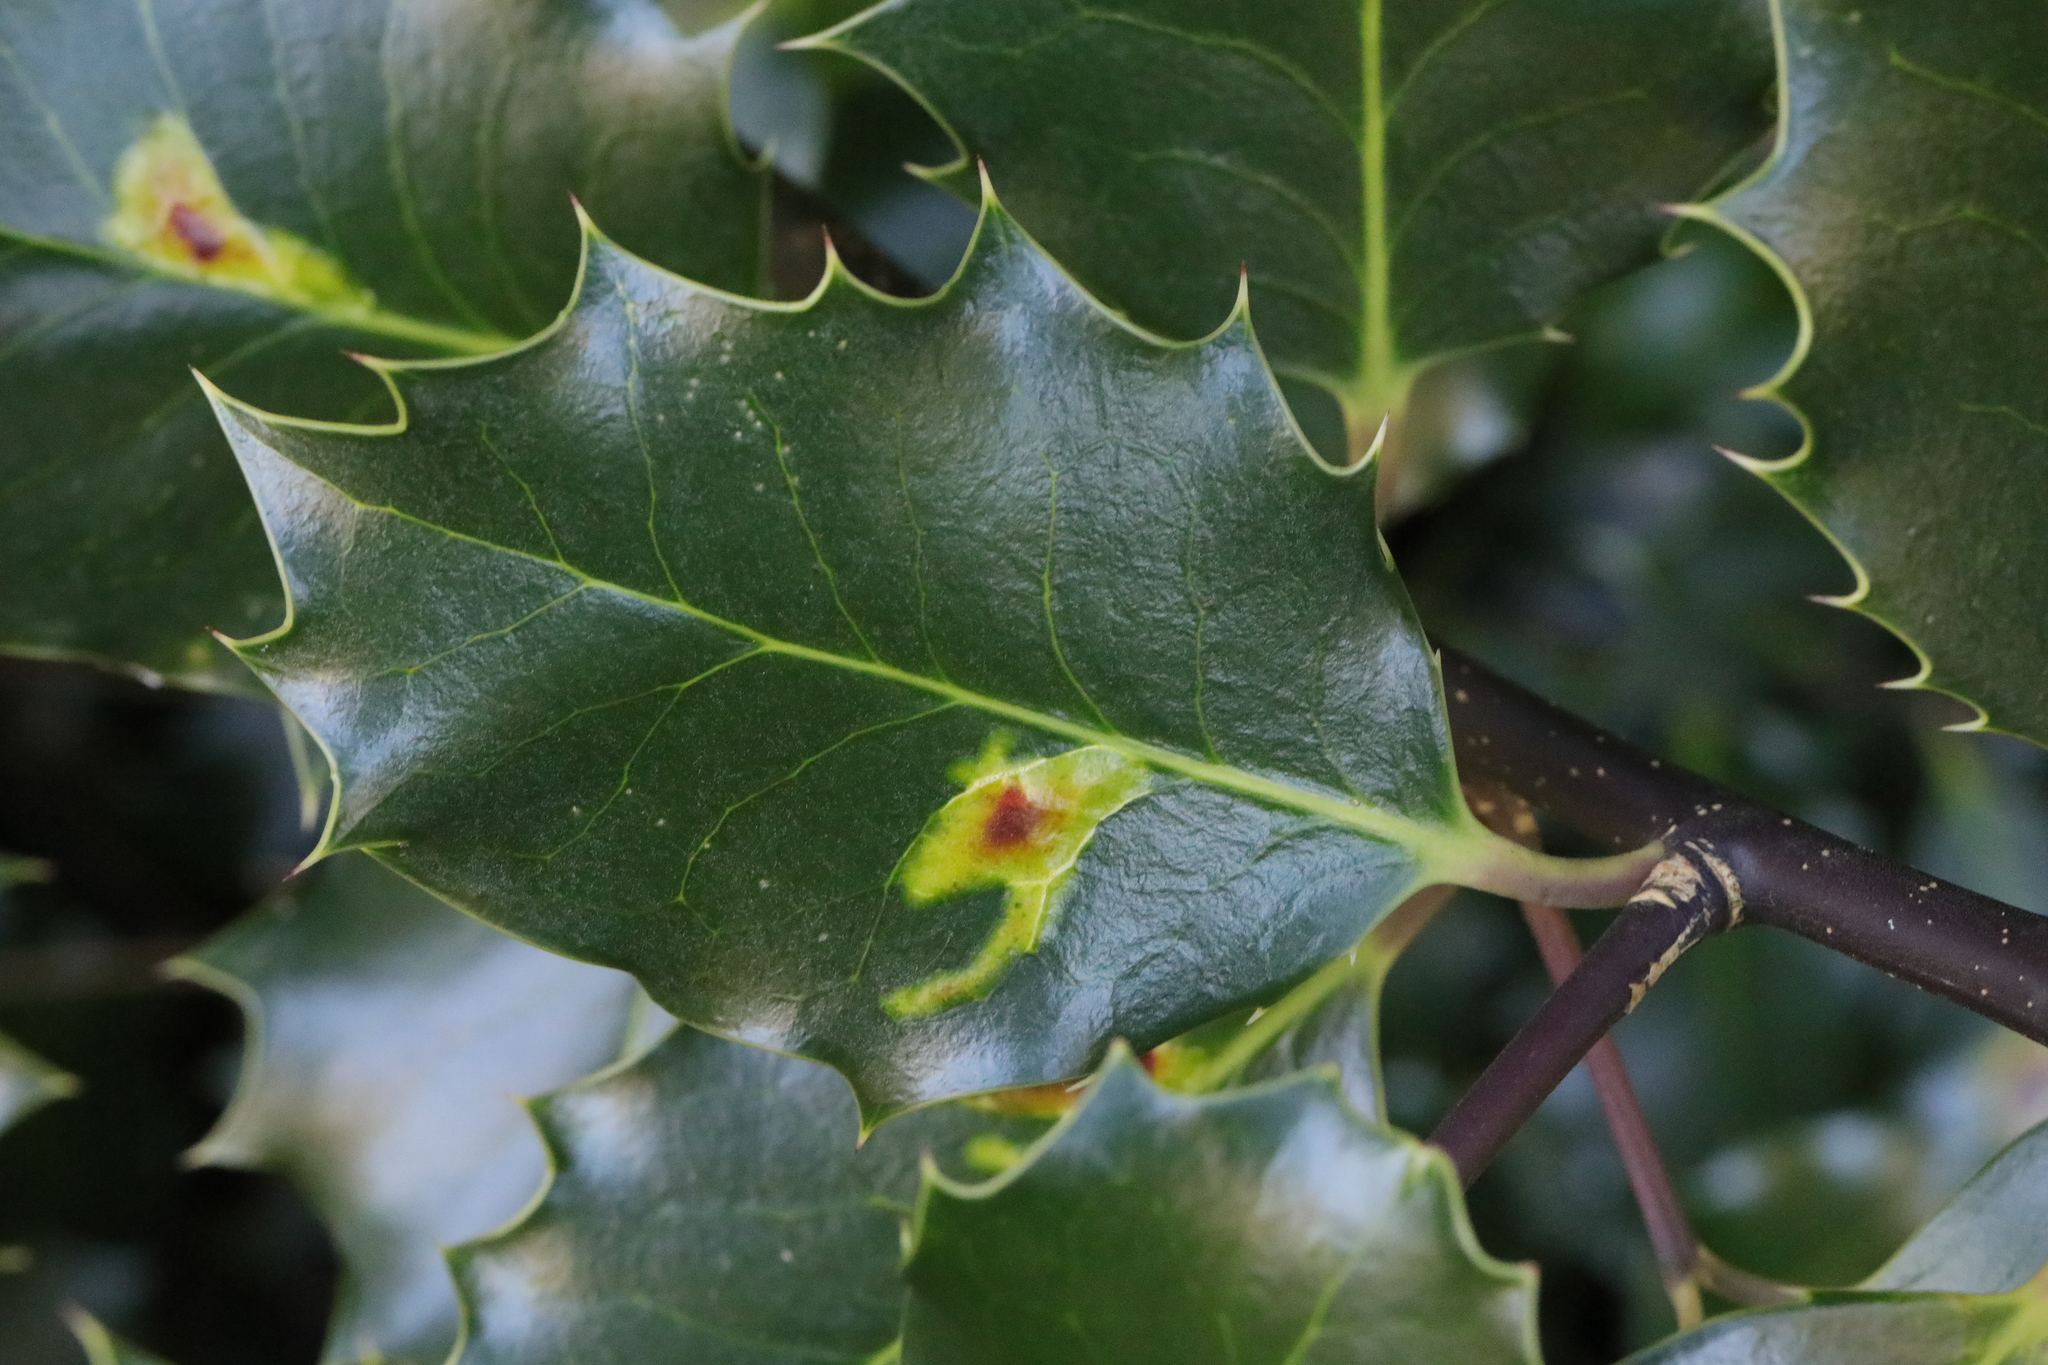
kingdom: Plantae
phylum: Tracheophyta
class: Magnoliopsida
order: Aquifoliales
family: Aquifoliaceae
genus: Ilex
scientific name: Ilex aquifolium
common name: English holly
